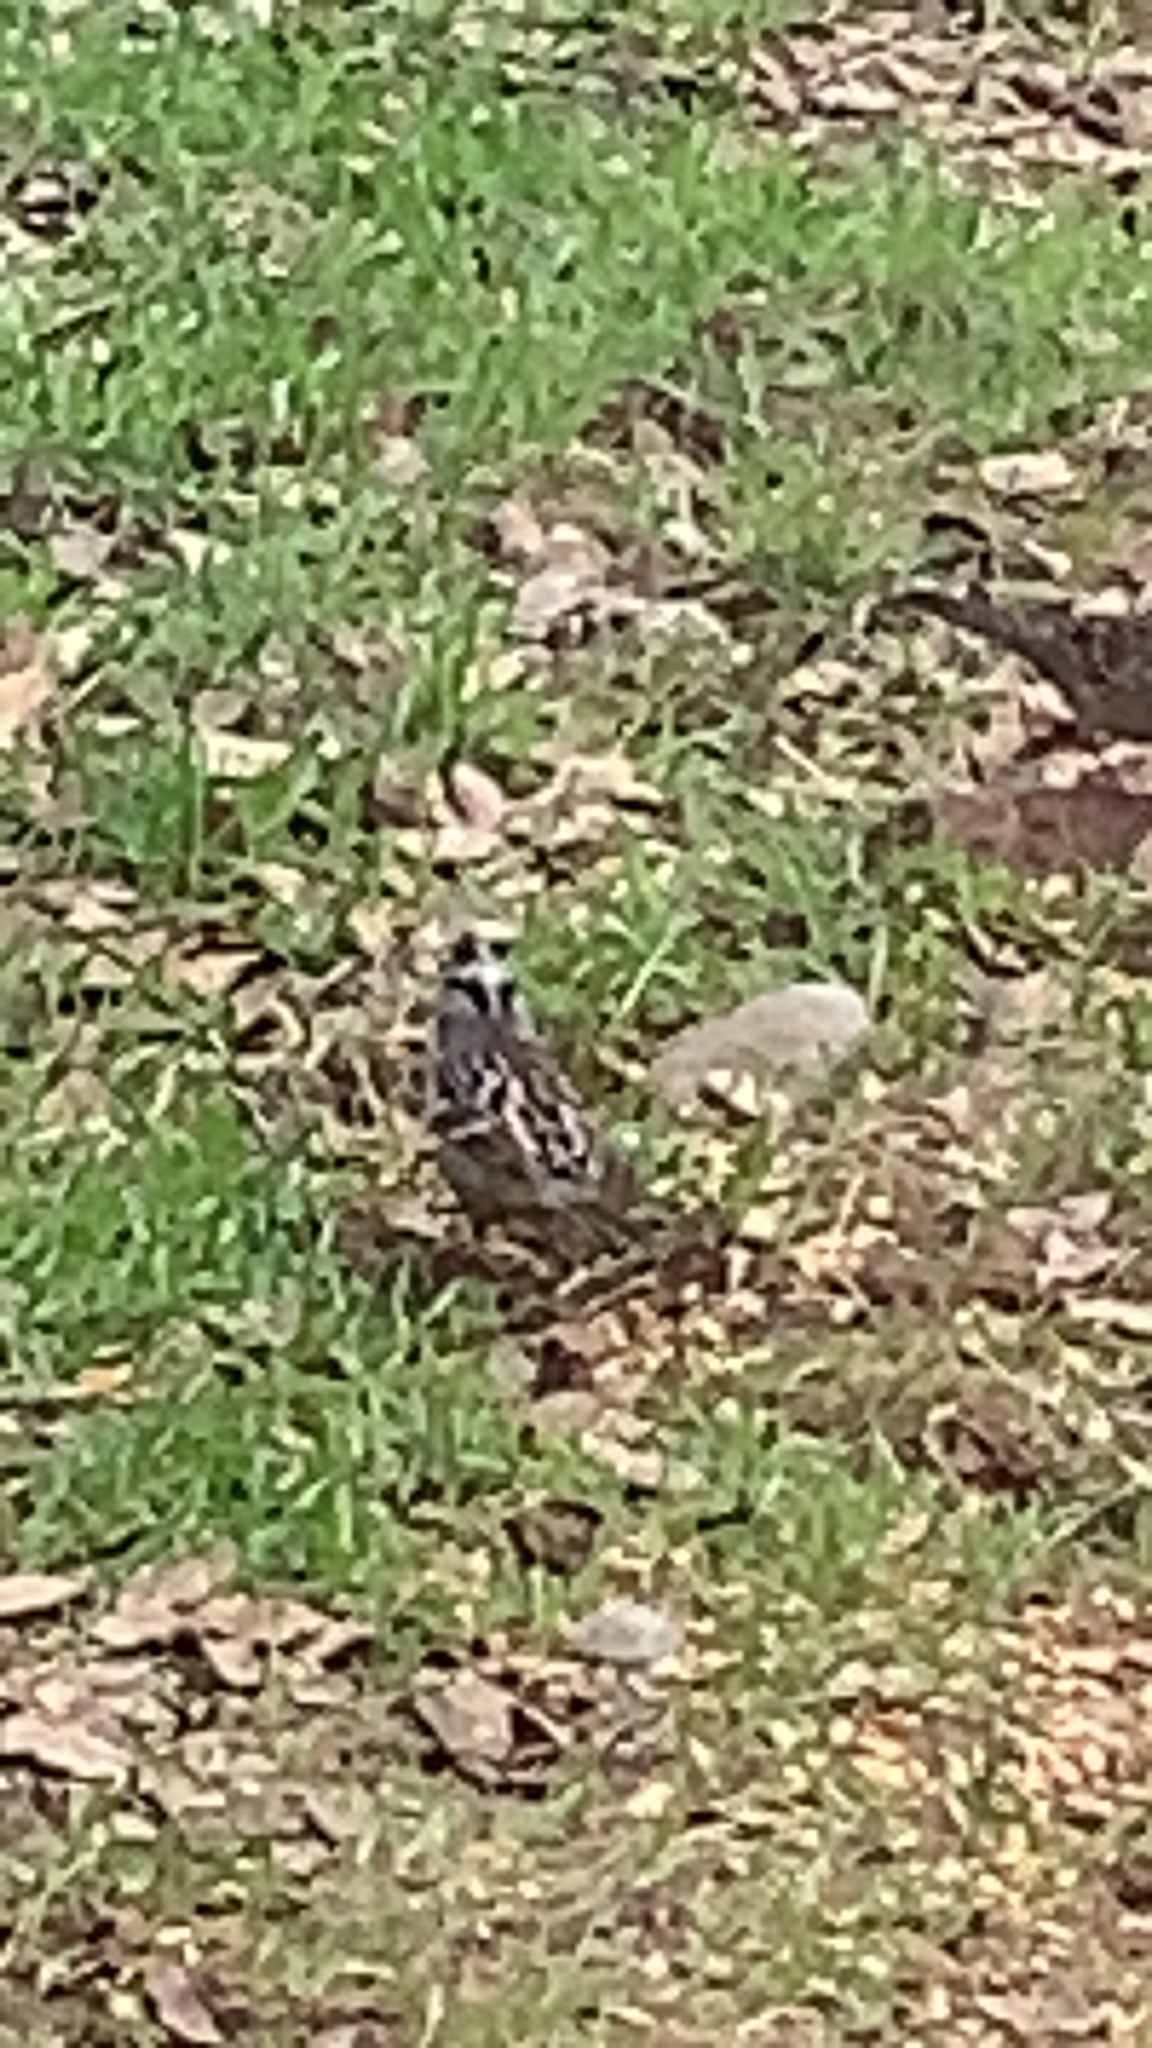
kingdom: Animalia
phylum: Chordata
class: Aves
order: Passeriformes
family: Passerellidae
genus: Zonotrichia
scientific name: Zonotrichia leucophrys
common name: White-crowned sparrow
